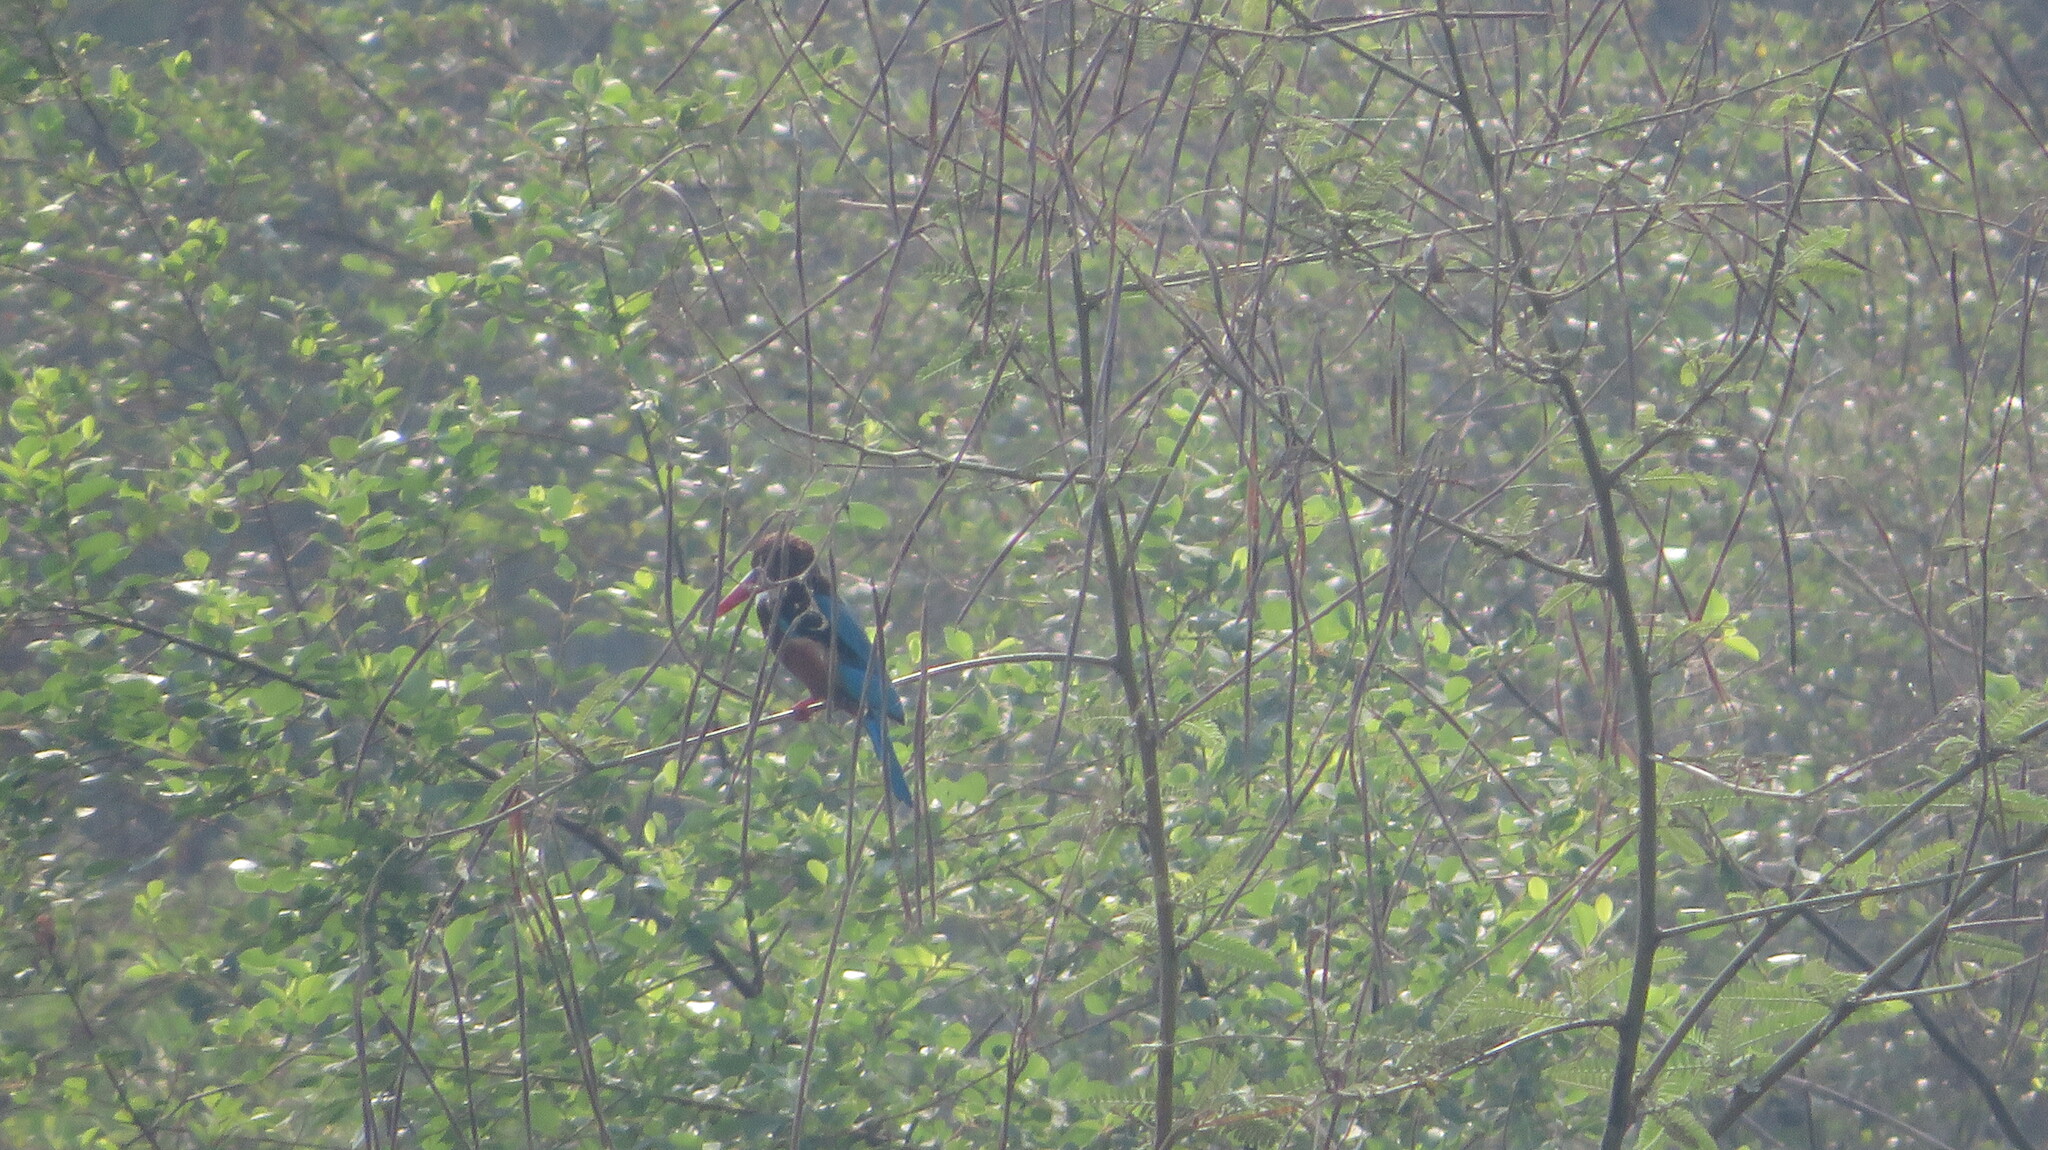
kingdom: Animalia
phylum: Chordata
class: Aves
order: Coraciiformes
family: Alcedinidae
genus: Halcyon
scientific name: Halcyon smyrnensis
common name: White-throated kingfisher
